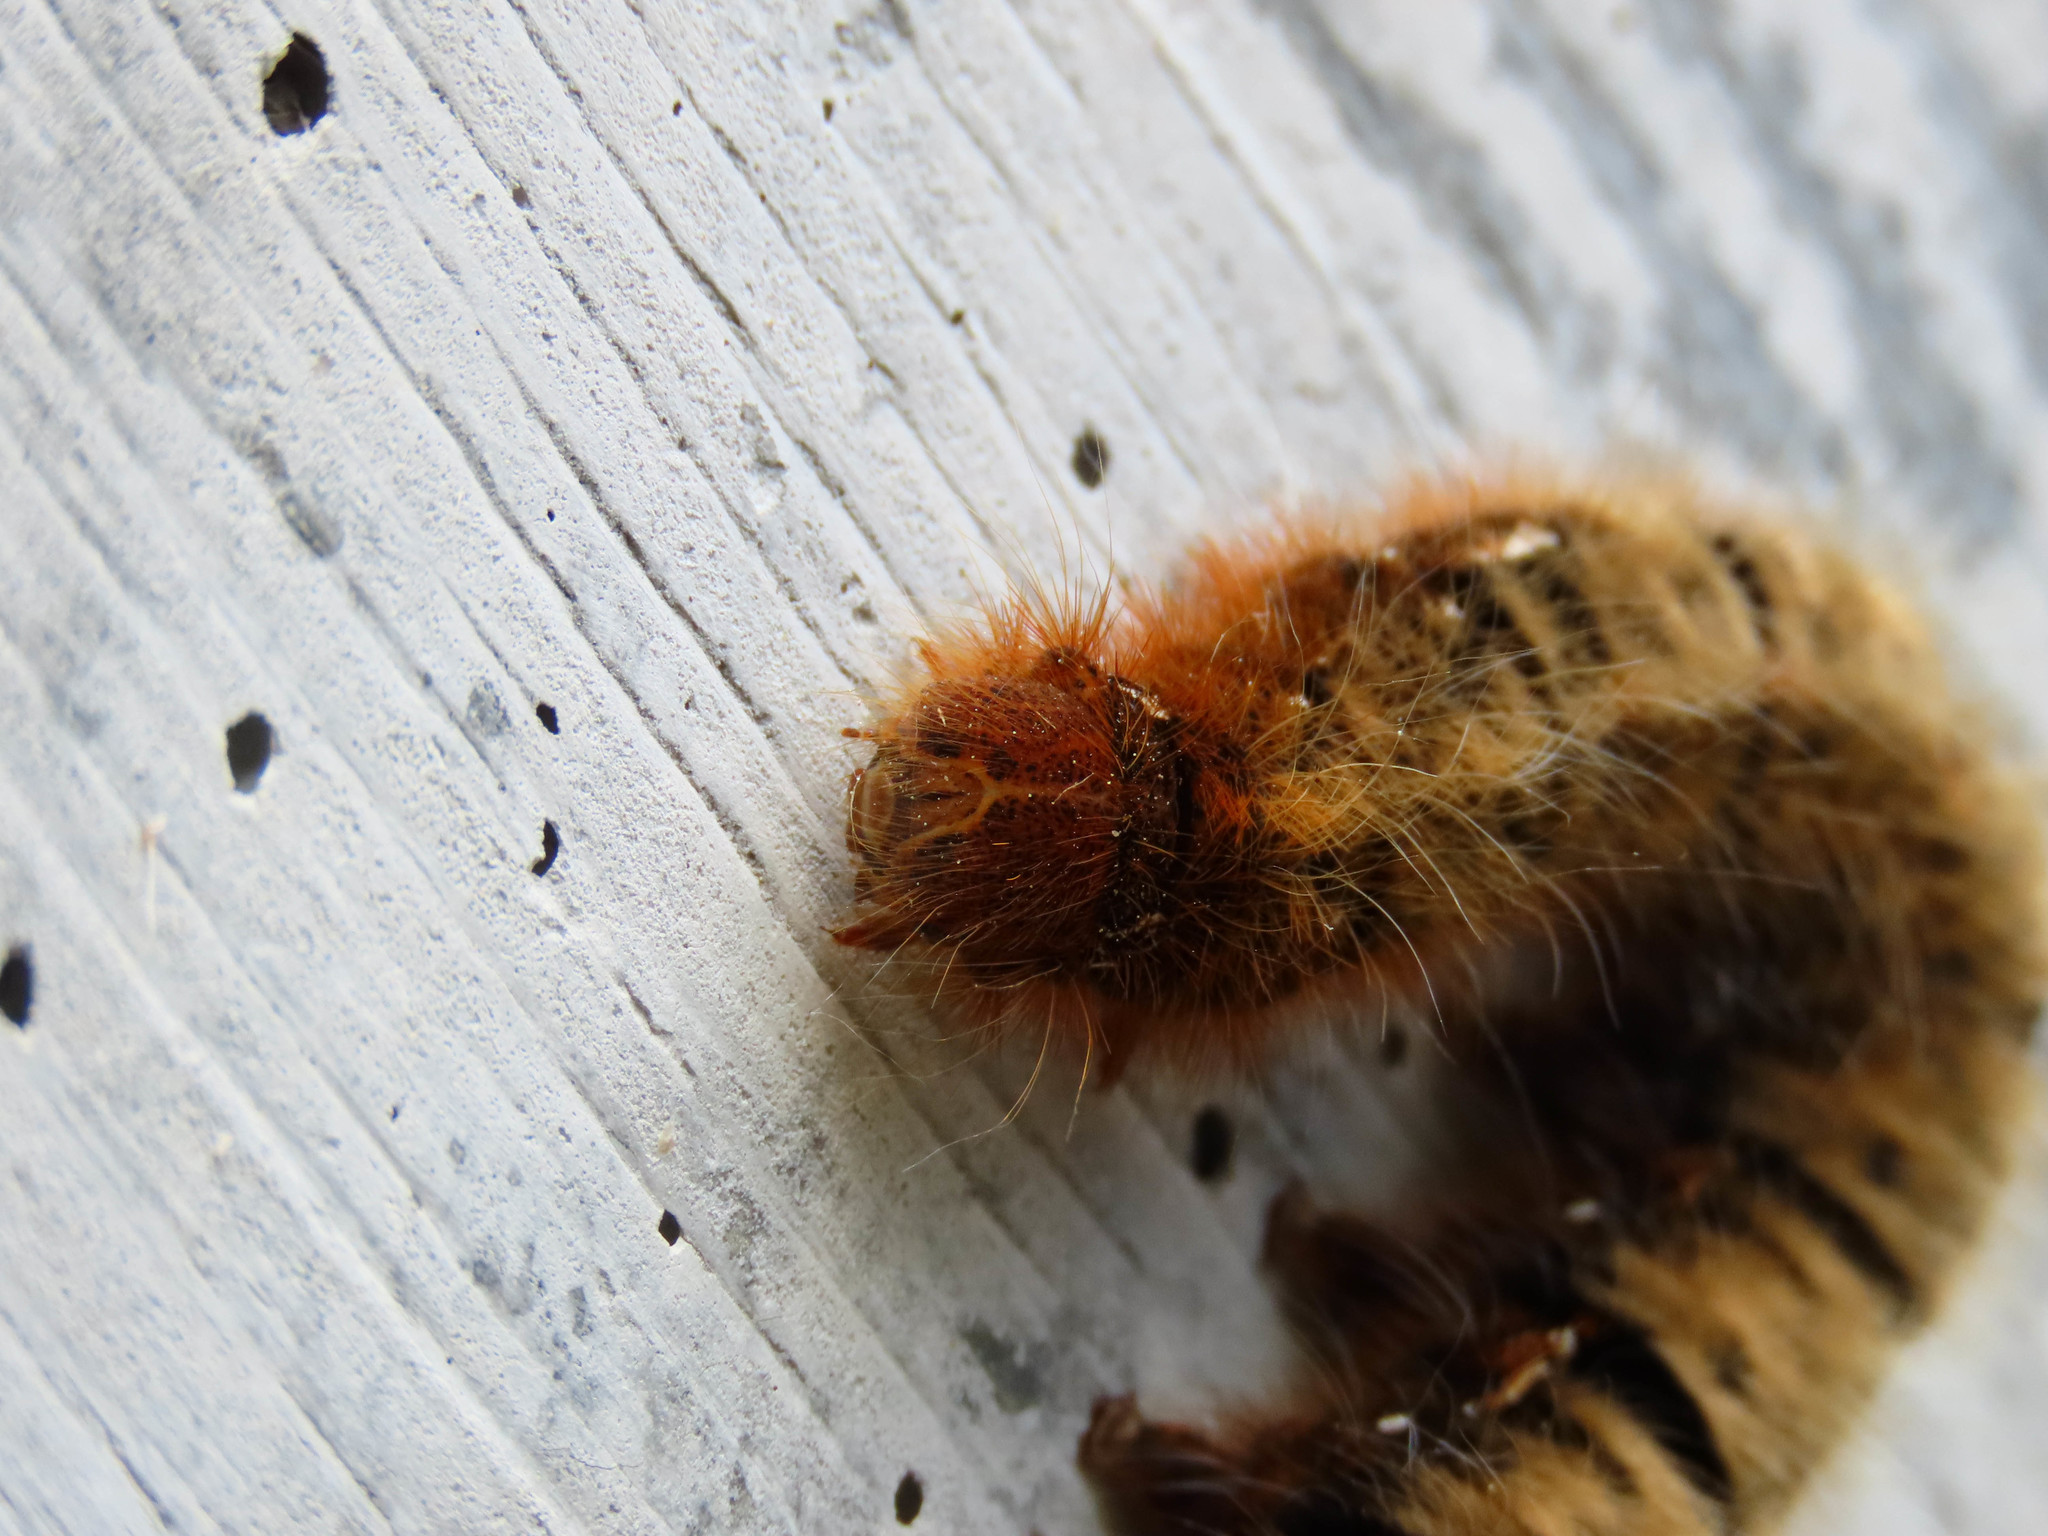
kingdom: Animalia
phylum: Arthropoda
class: Insecta
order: Lepidoptera
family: Lasiocampidae
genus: Lasiocampa
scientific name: Lasiocampa quercus
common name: Oak eggar
